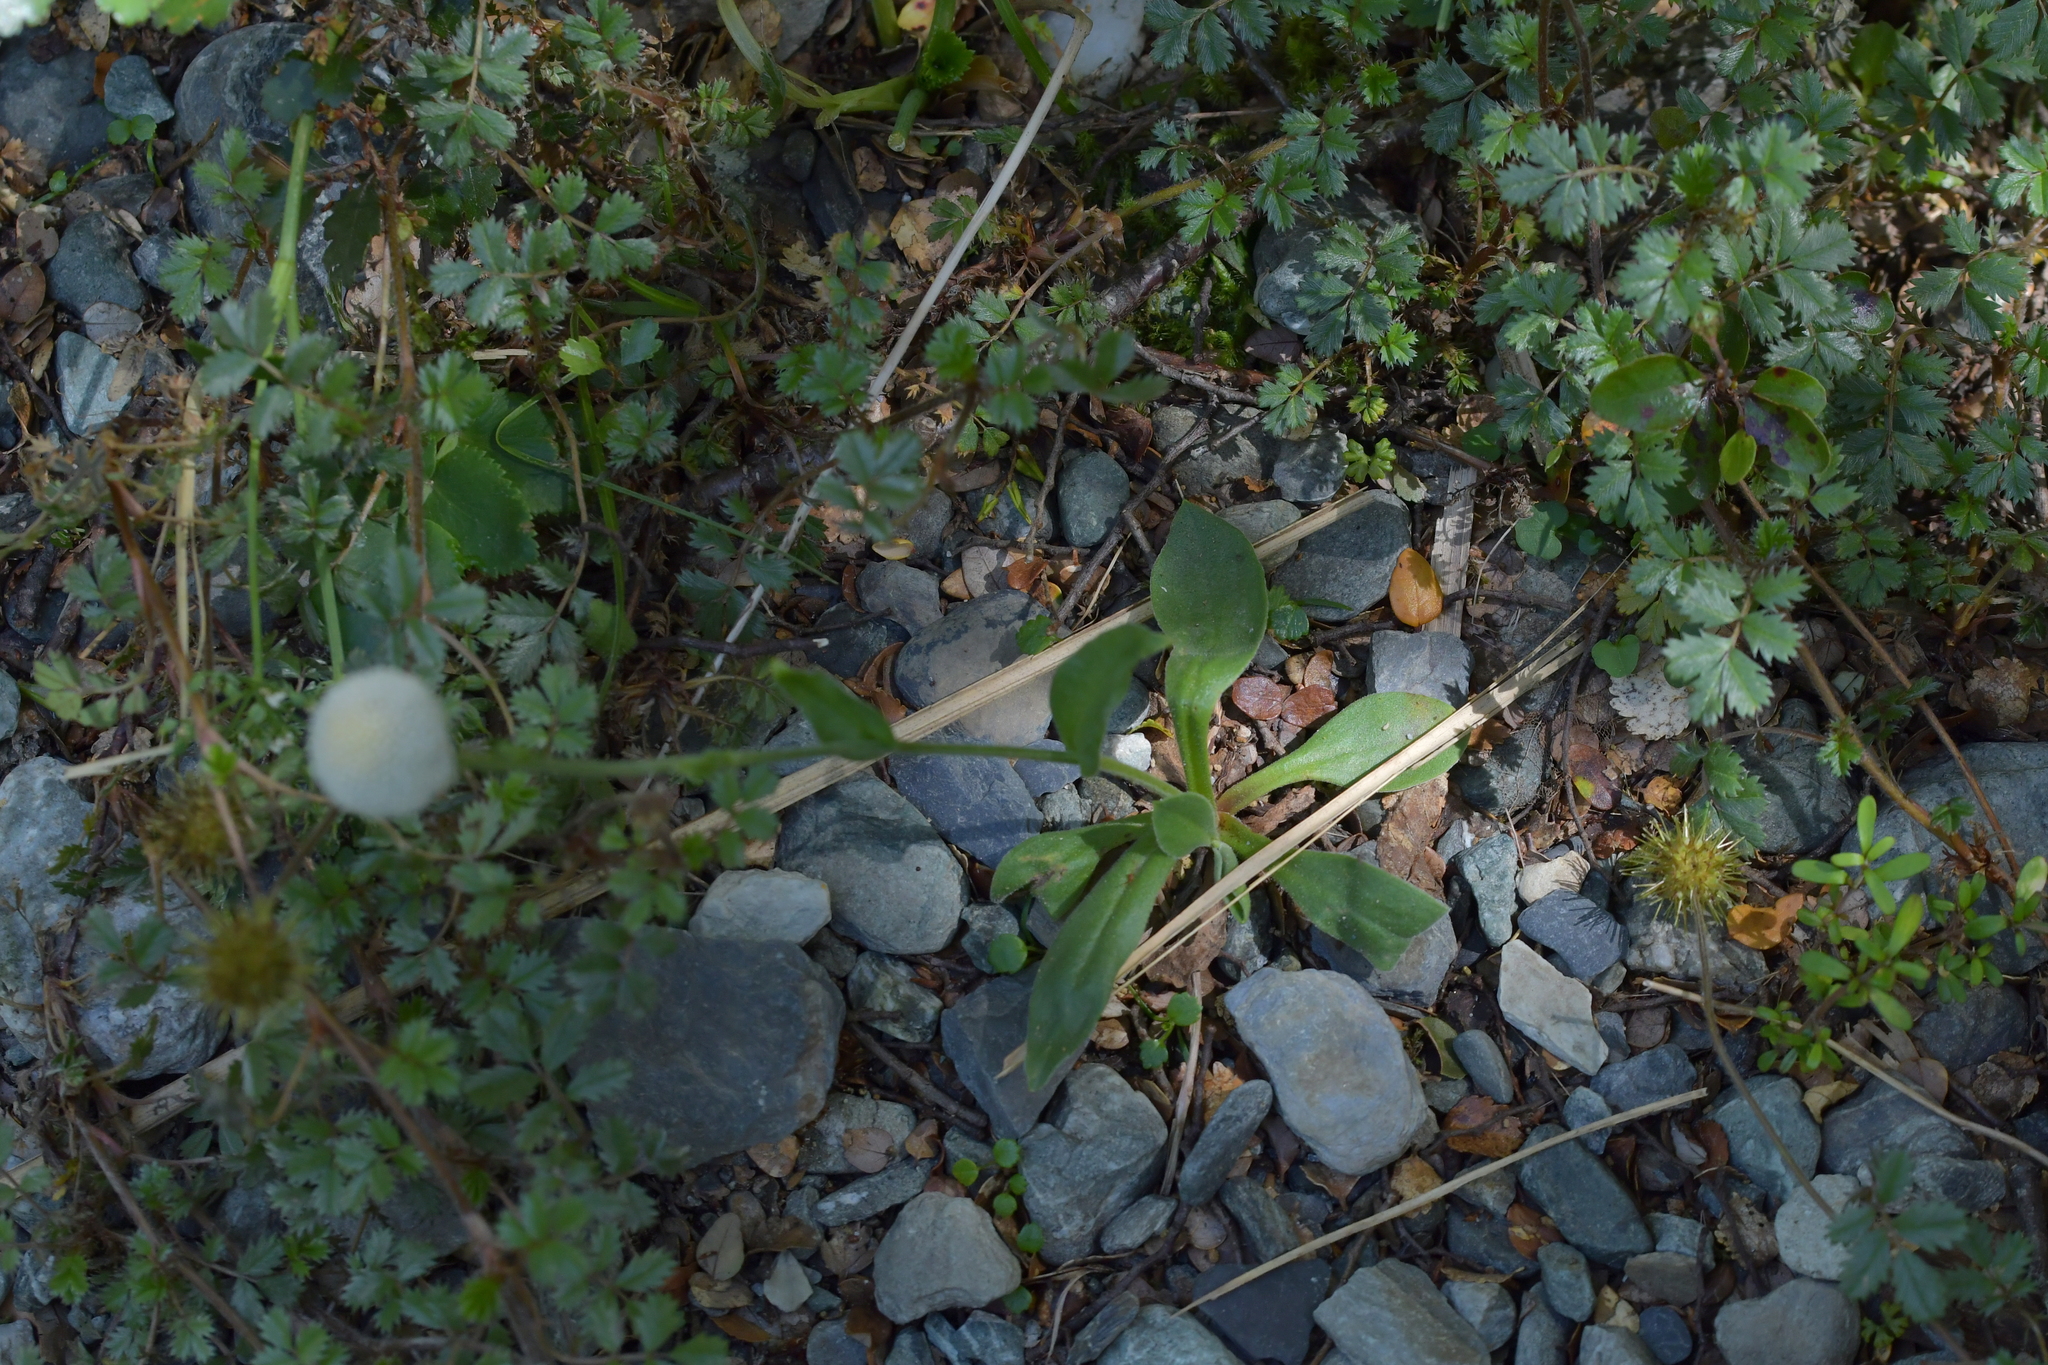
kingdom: Plantae
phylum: Tracheophyta
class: Magnoliopsida
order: Asterales
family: Asteraceae
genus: Craspedia
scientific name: Craspedia uniflora
